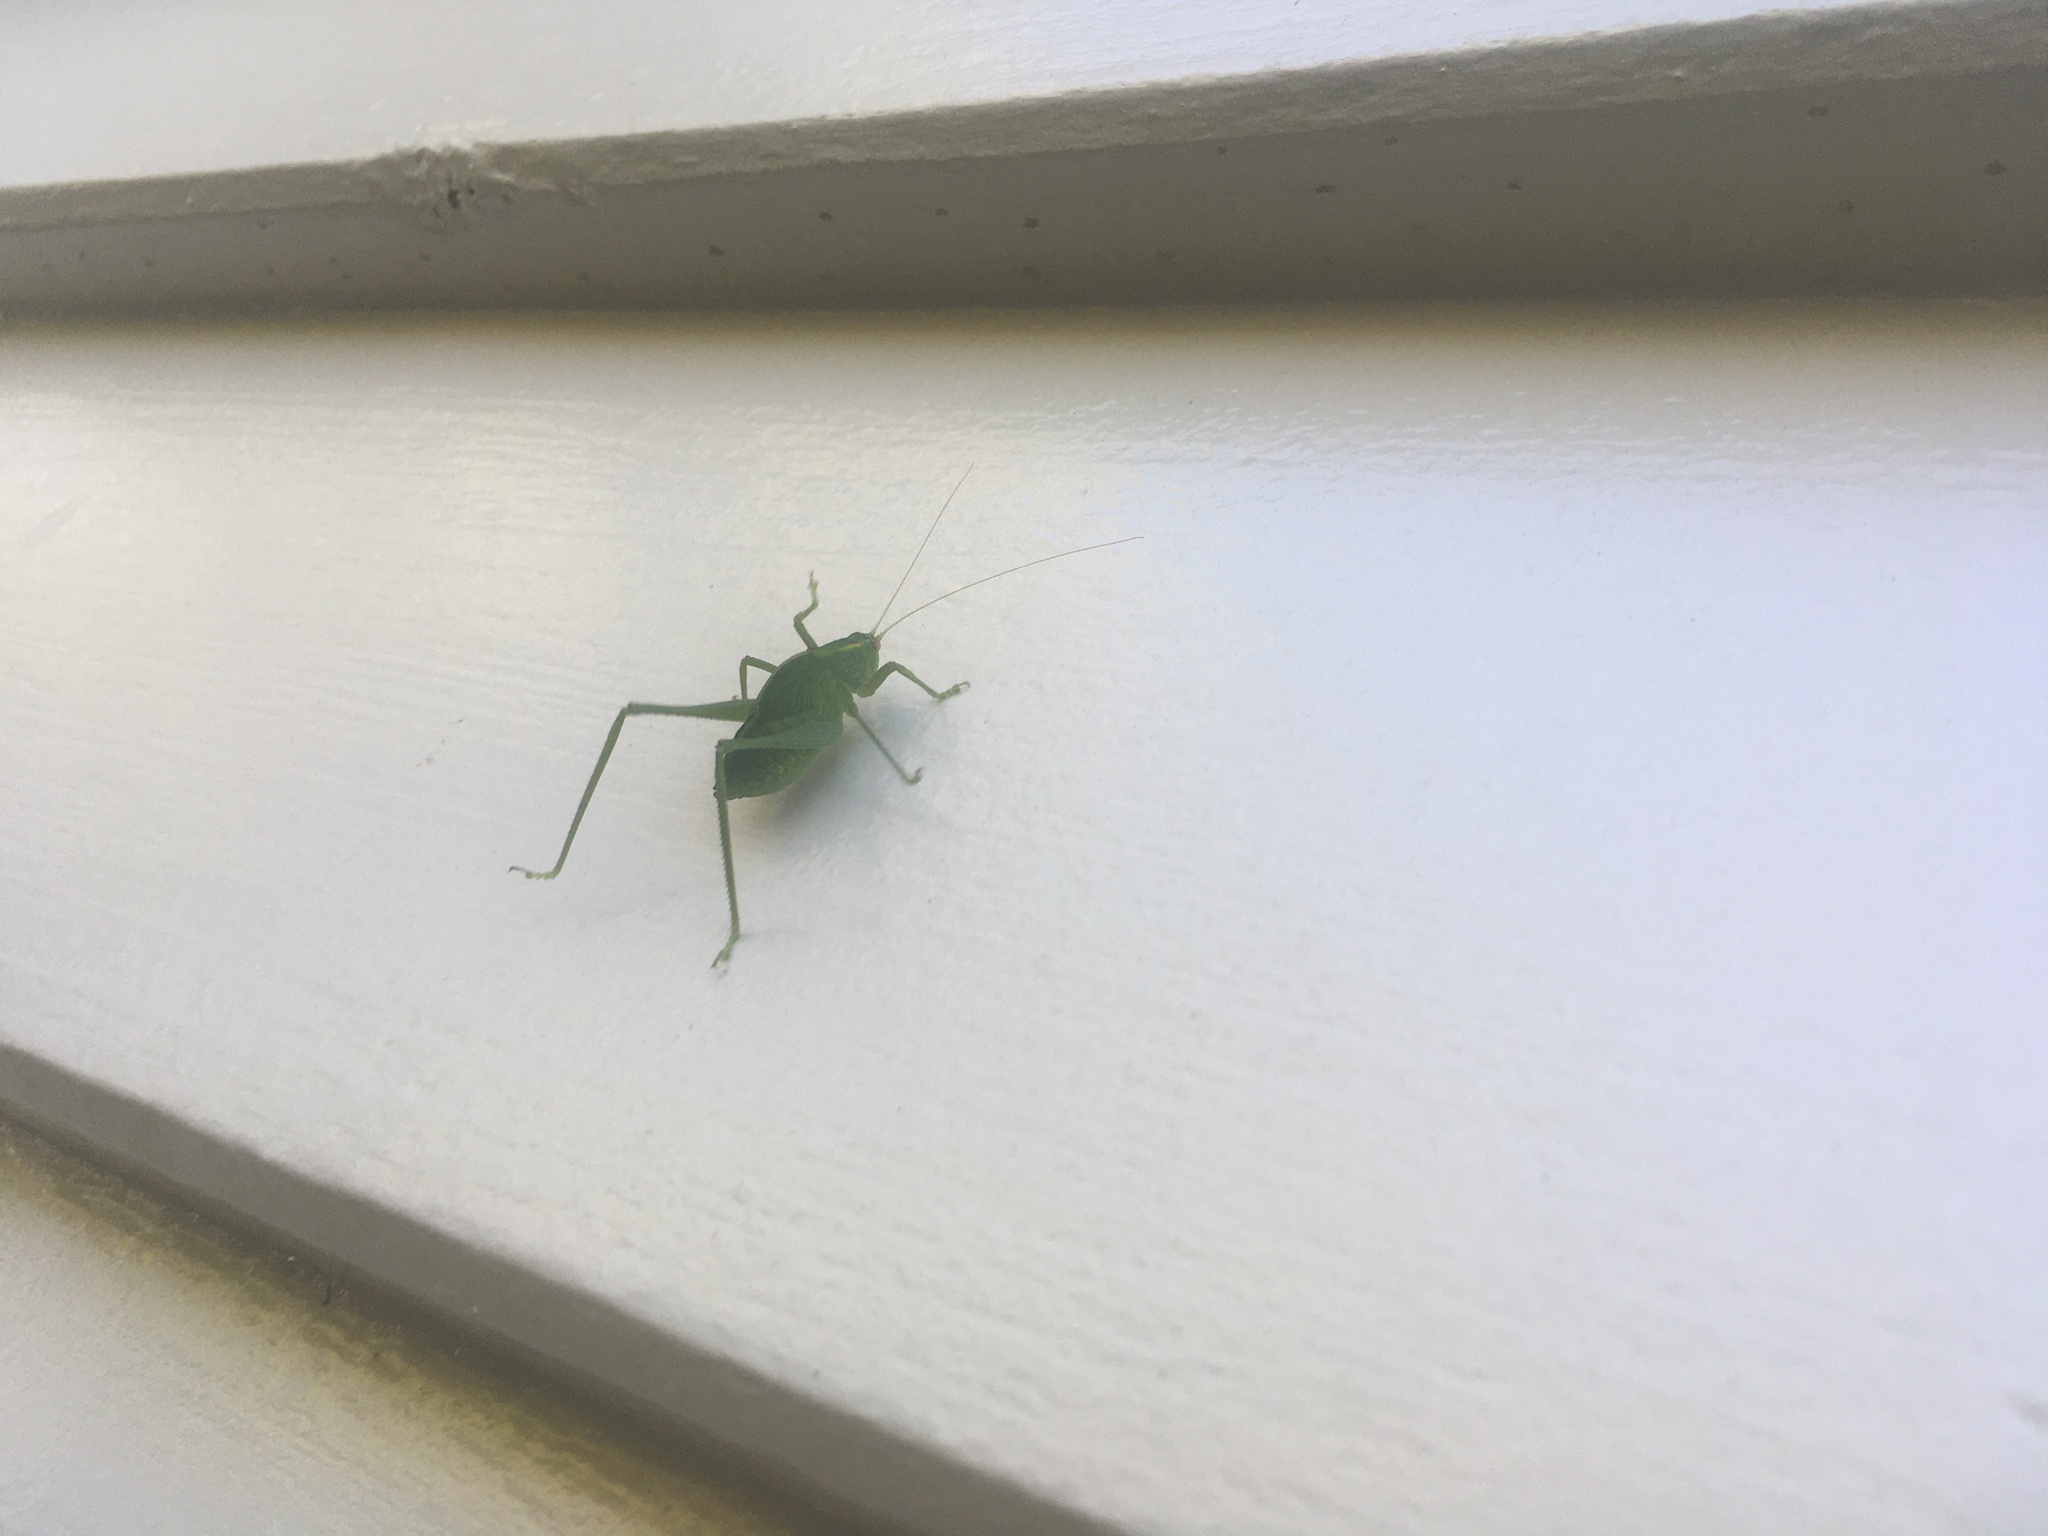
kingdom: Animalia
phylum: Arthropoda
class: Insecta
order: Orthoptera
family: Tettigoniidae
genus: Caedicia
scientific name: Caedicia simplex
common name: Common garden katydid
